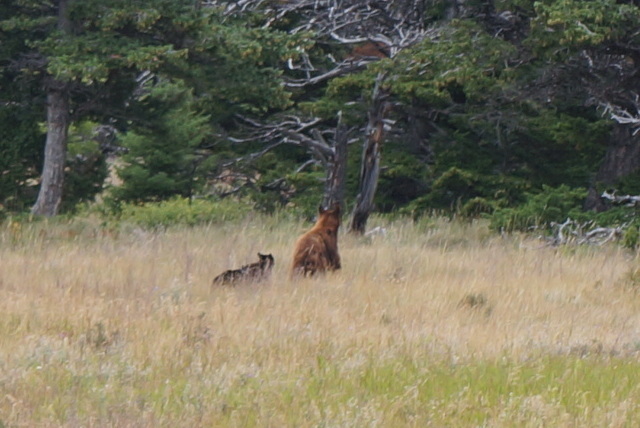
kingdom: Animalia
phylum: Chordata
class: Mammalia
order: Carnivora
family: Ursidae
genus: Ursus
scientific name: Ursus americanus
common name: American black bear
